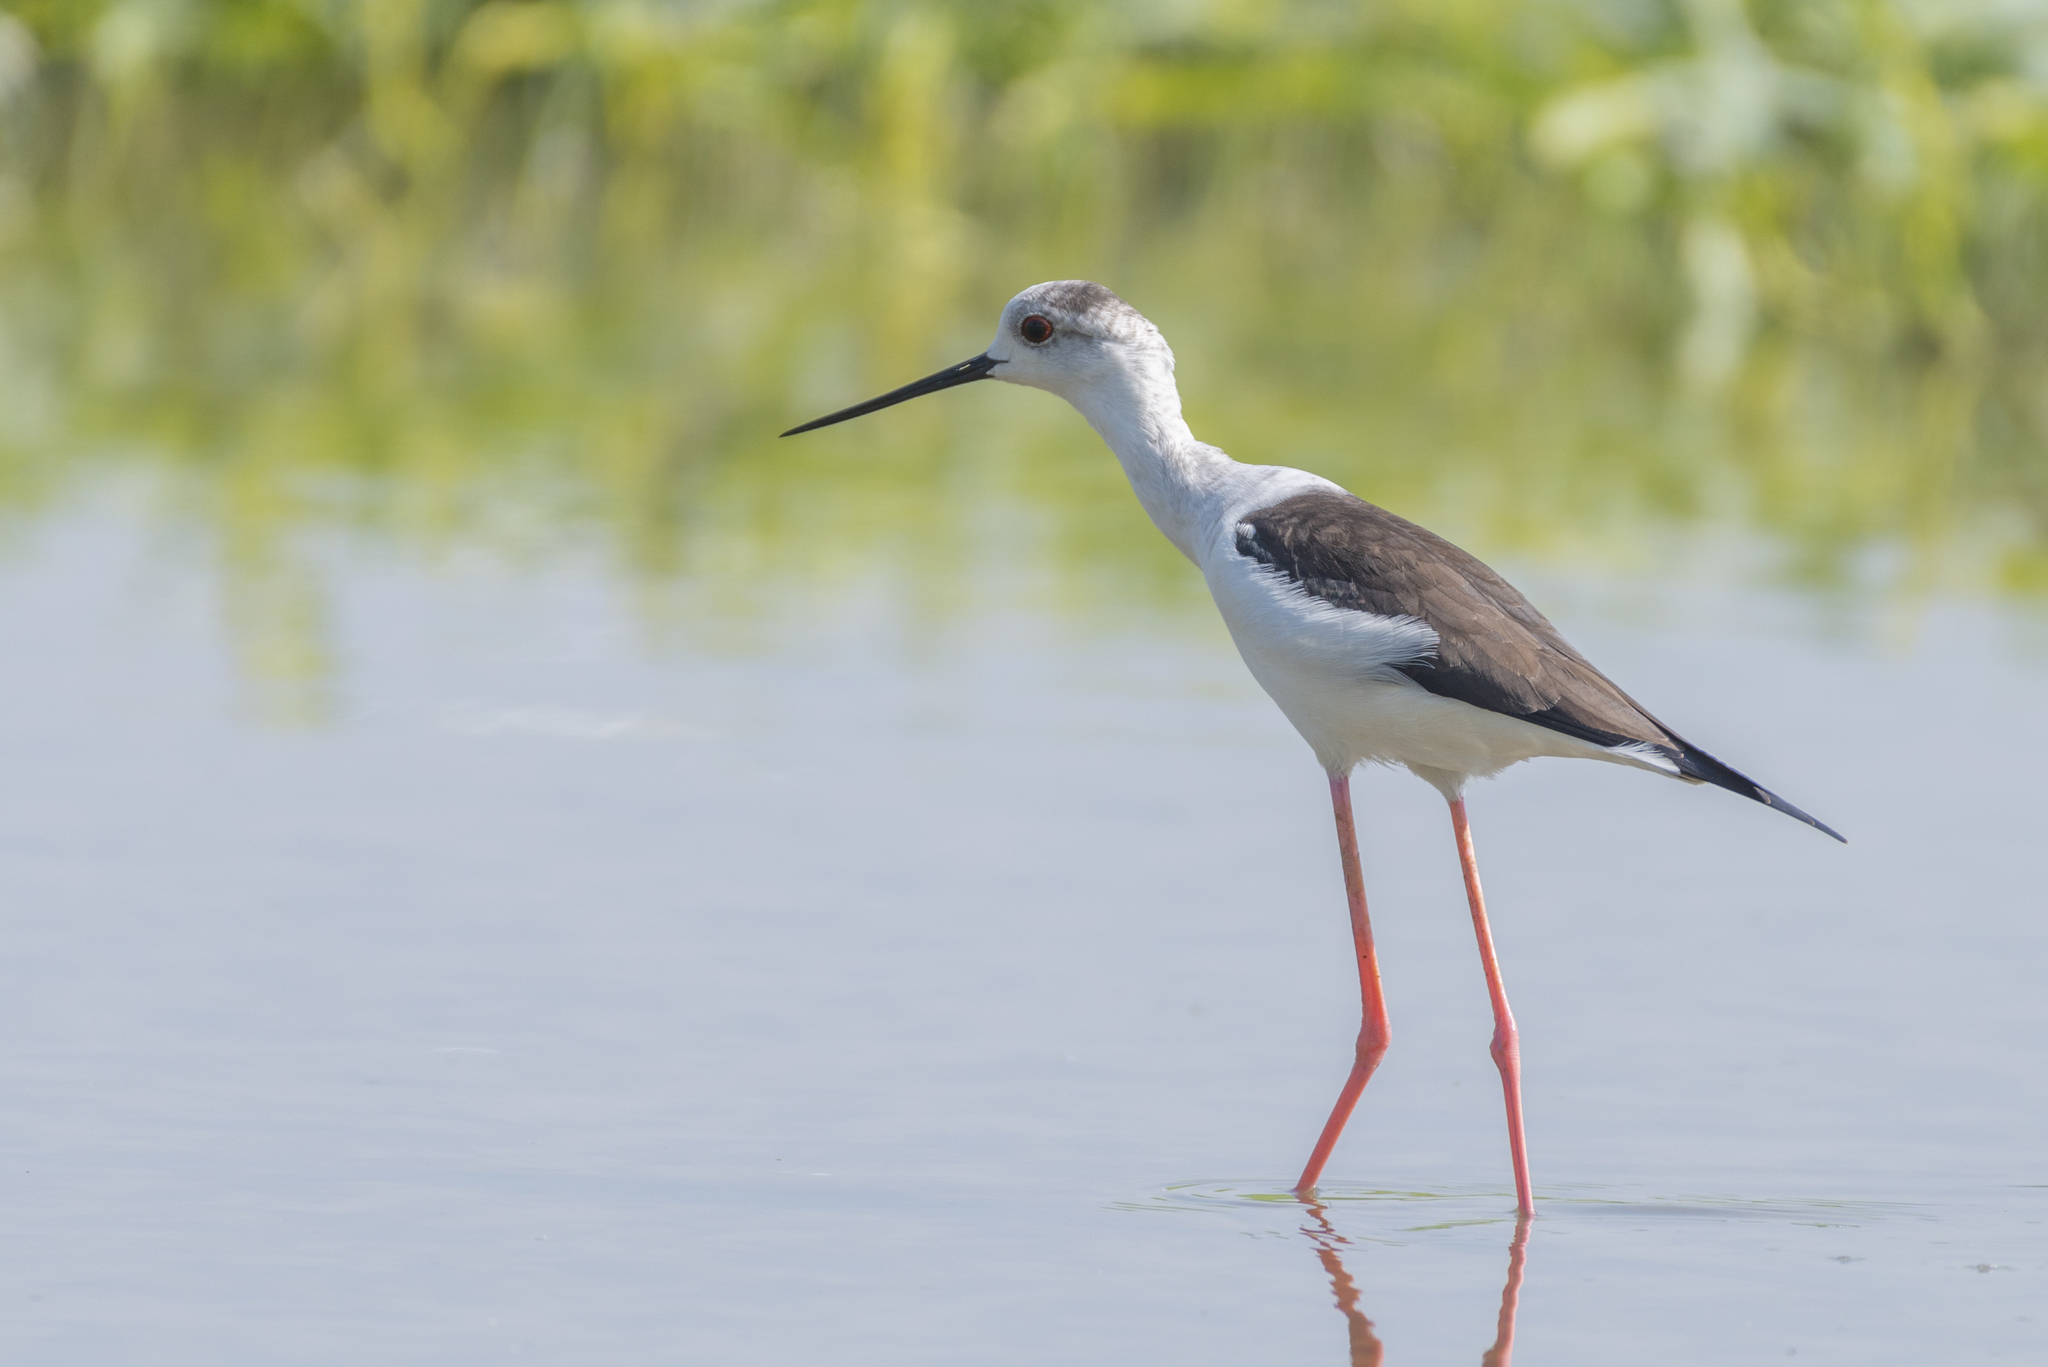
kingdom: Animalia
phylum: Chordata
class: Aves
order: Charadriiformes
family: Recurvirostridae
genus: Himantopus
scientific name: Himantopus himantopus
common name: Black-winged stilt
